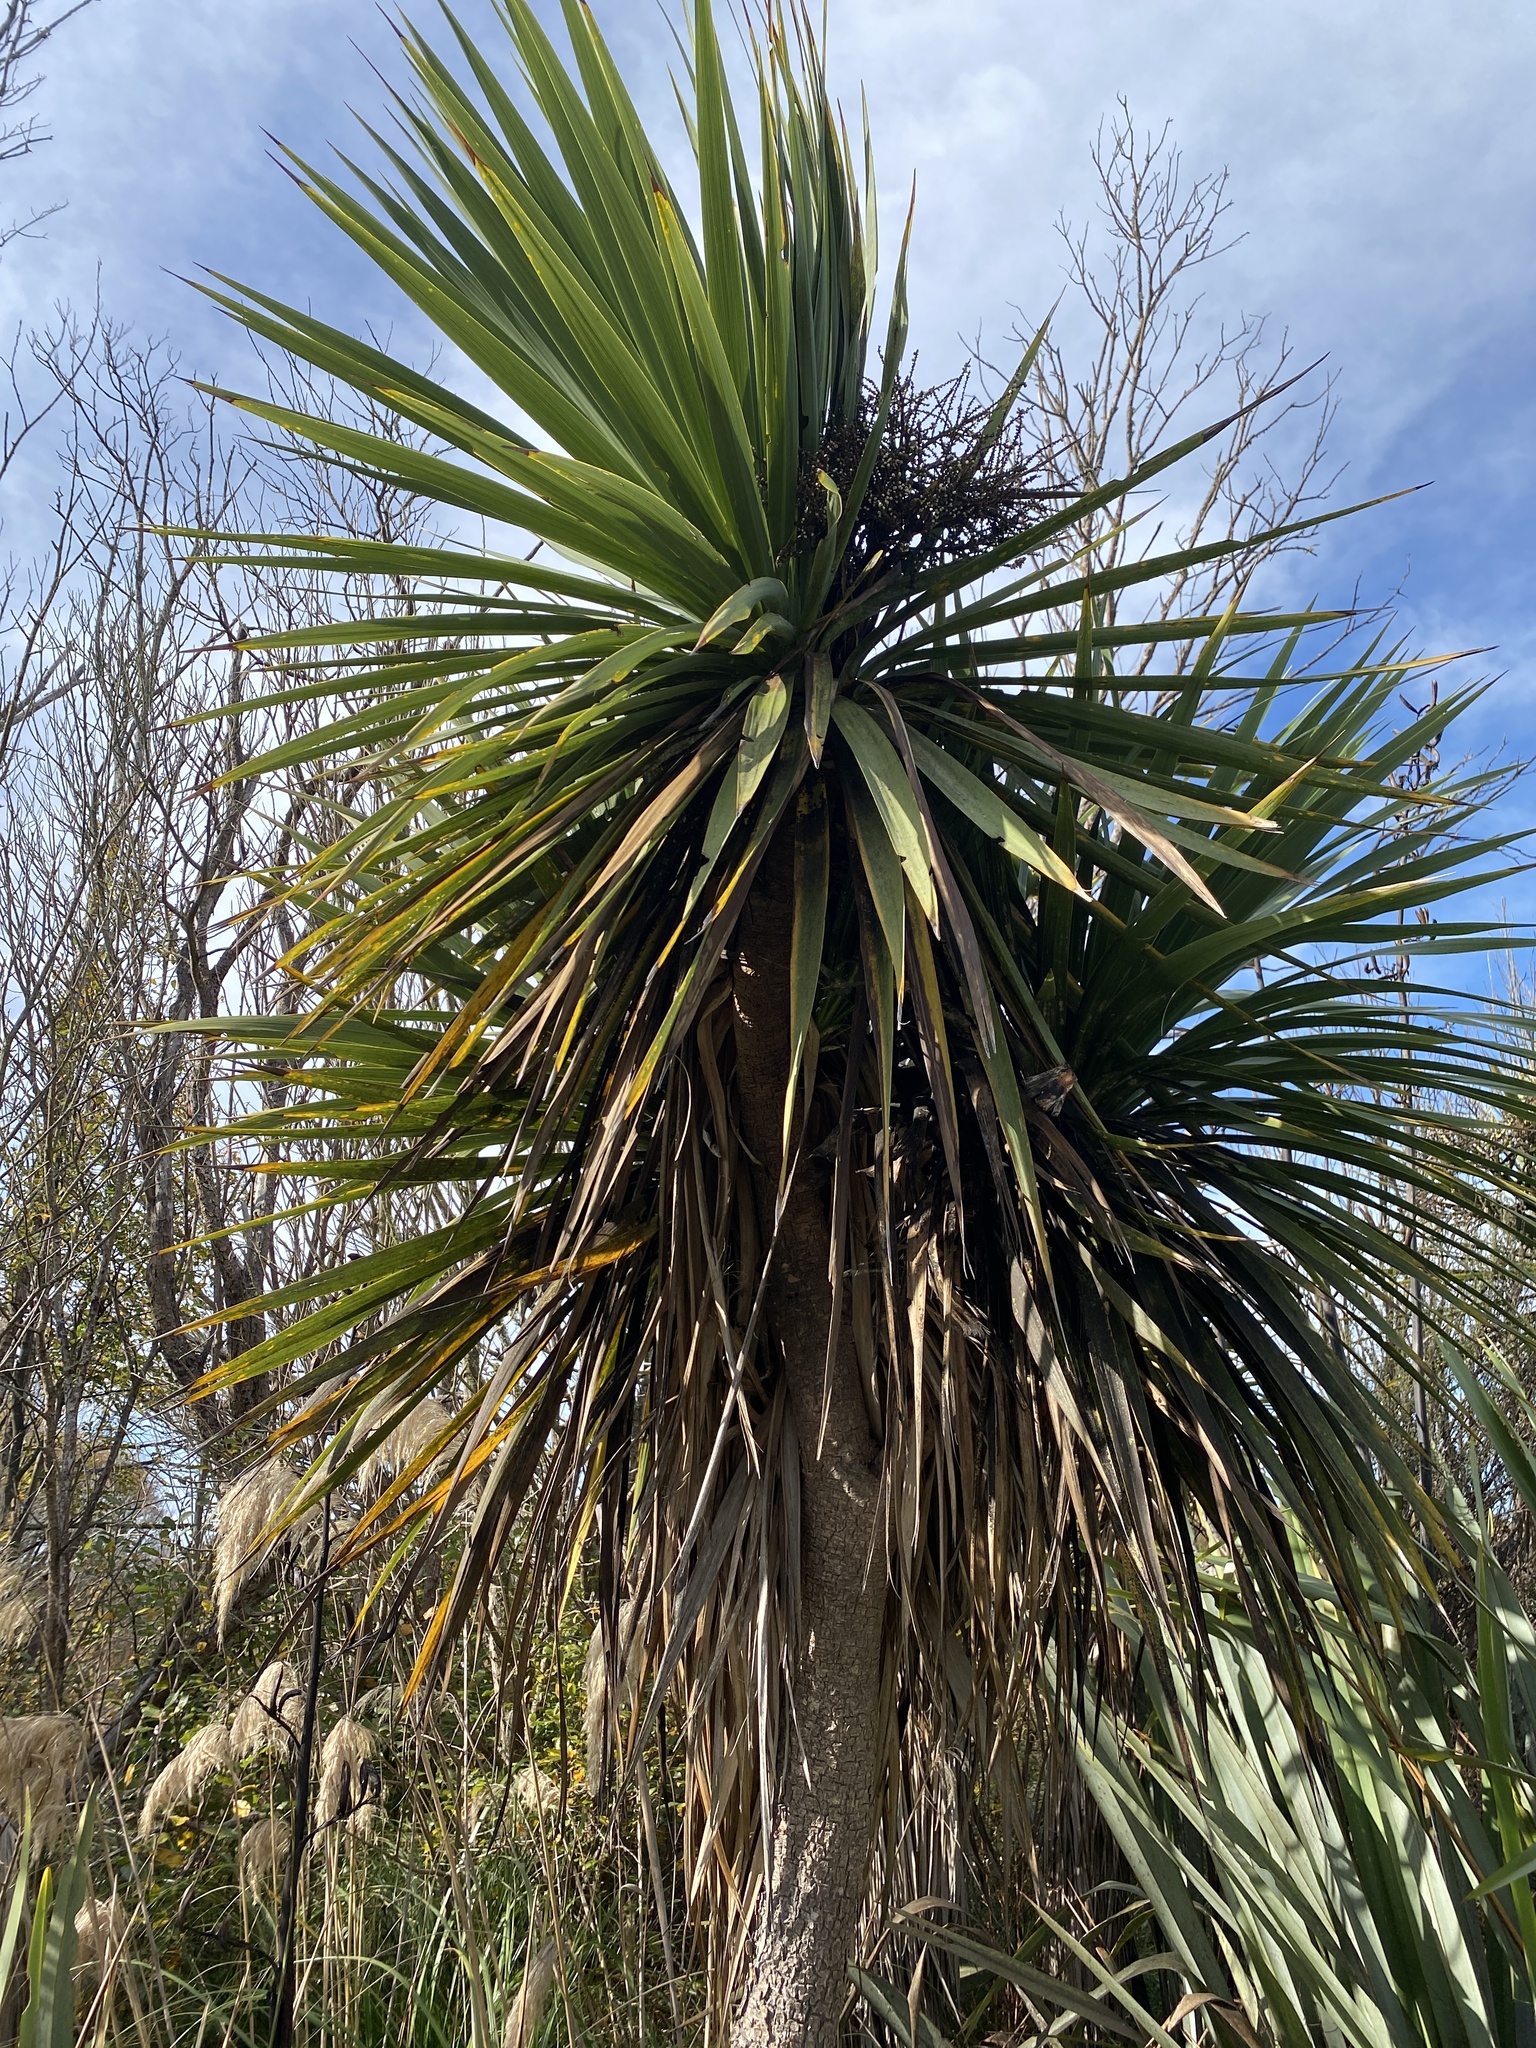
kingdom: Plantae
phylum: Tracheophyta
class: Liliopsida
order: Asparagales
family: Asparagaceae
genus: Cordyline
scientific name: Cordyline australis
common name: Cabbage-palm
